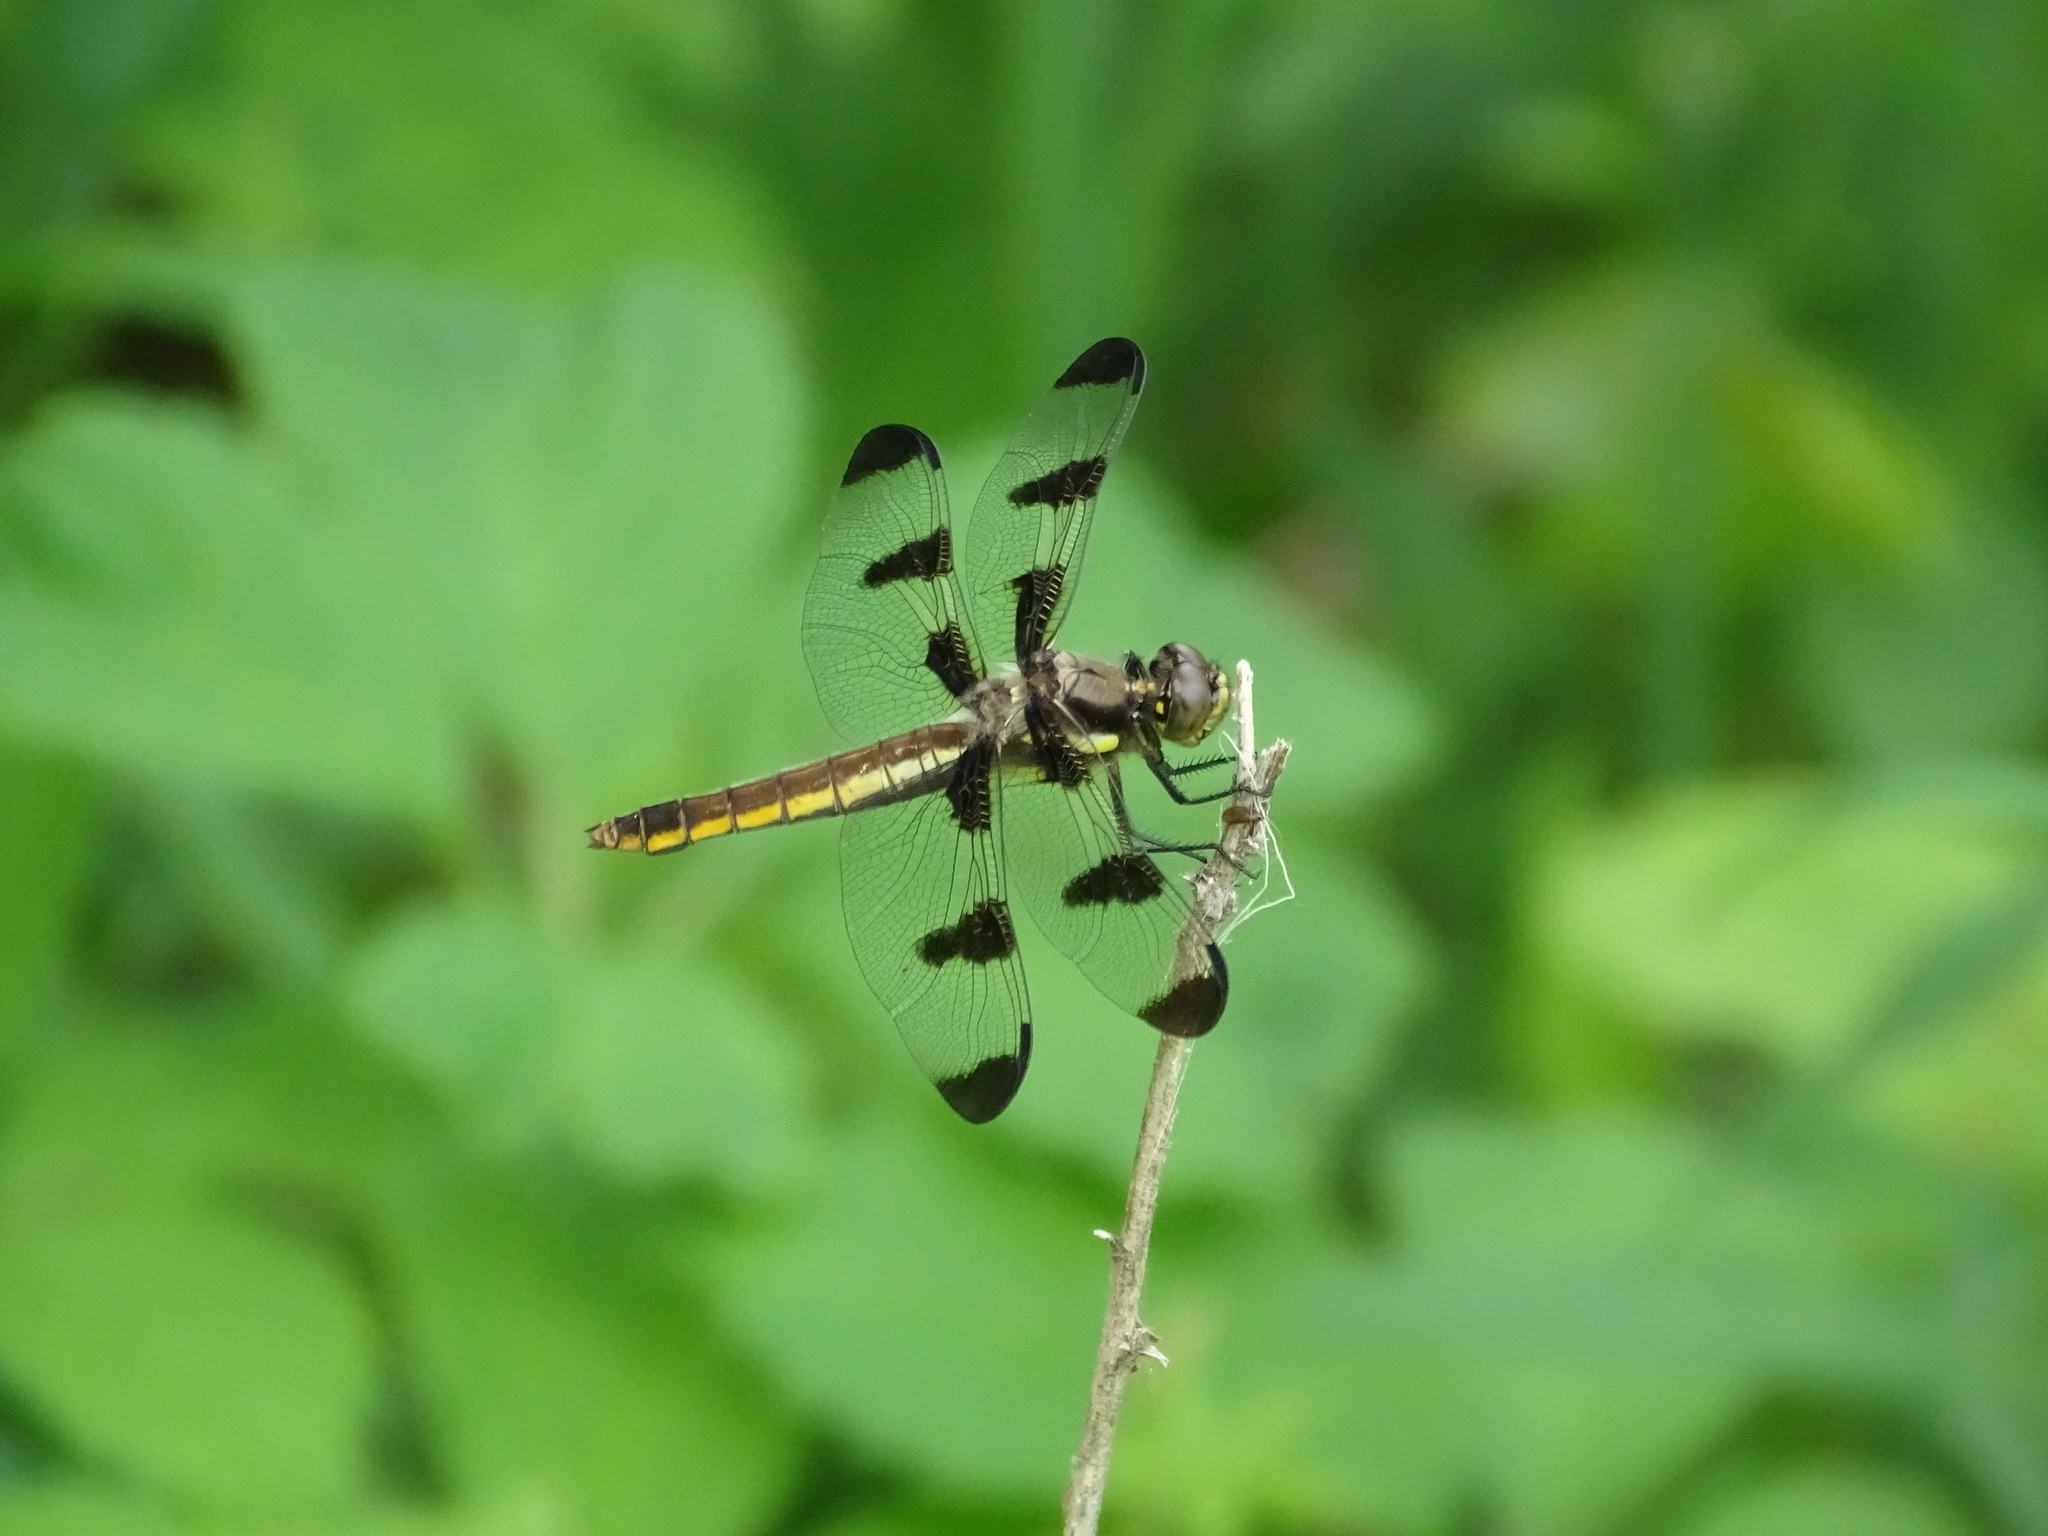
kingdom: Animalia
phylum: Arthropoda
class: Insecta
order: Odonata
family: Libellulidae
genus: Libellula
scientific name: Libellula pulchella
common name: Twelve-spotted skimmer
